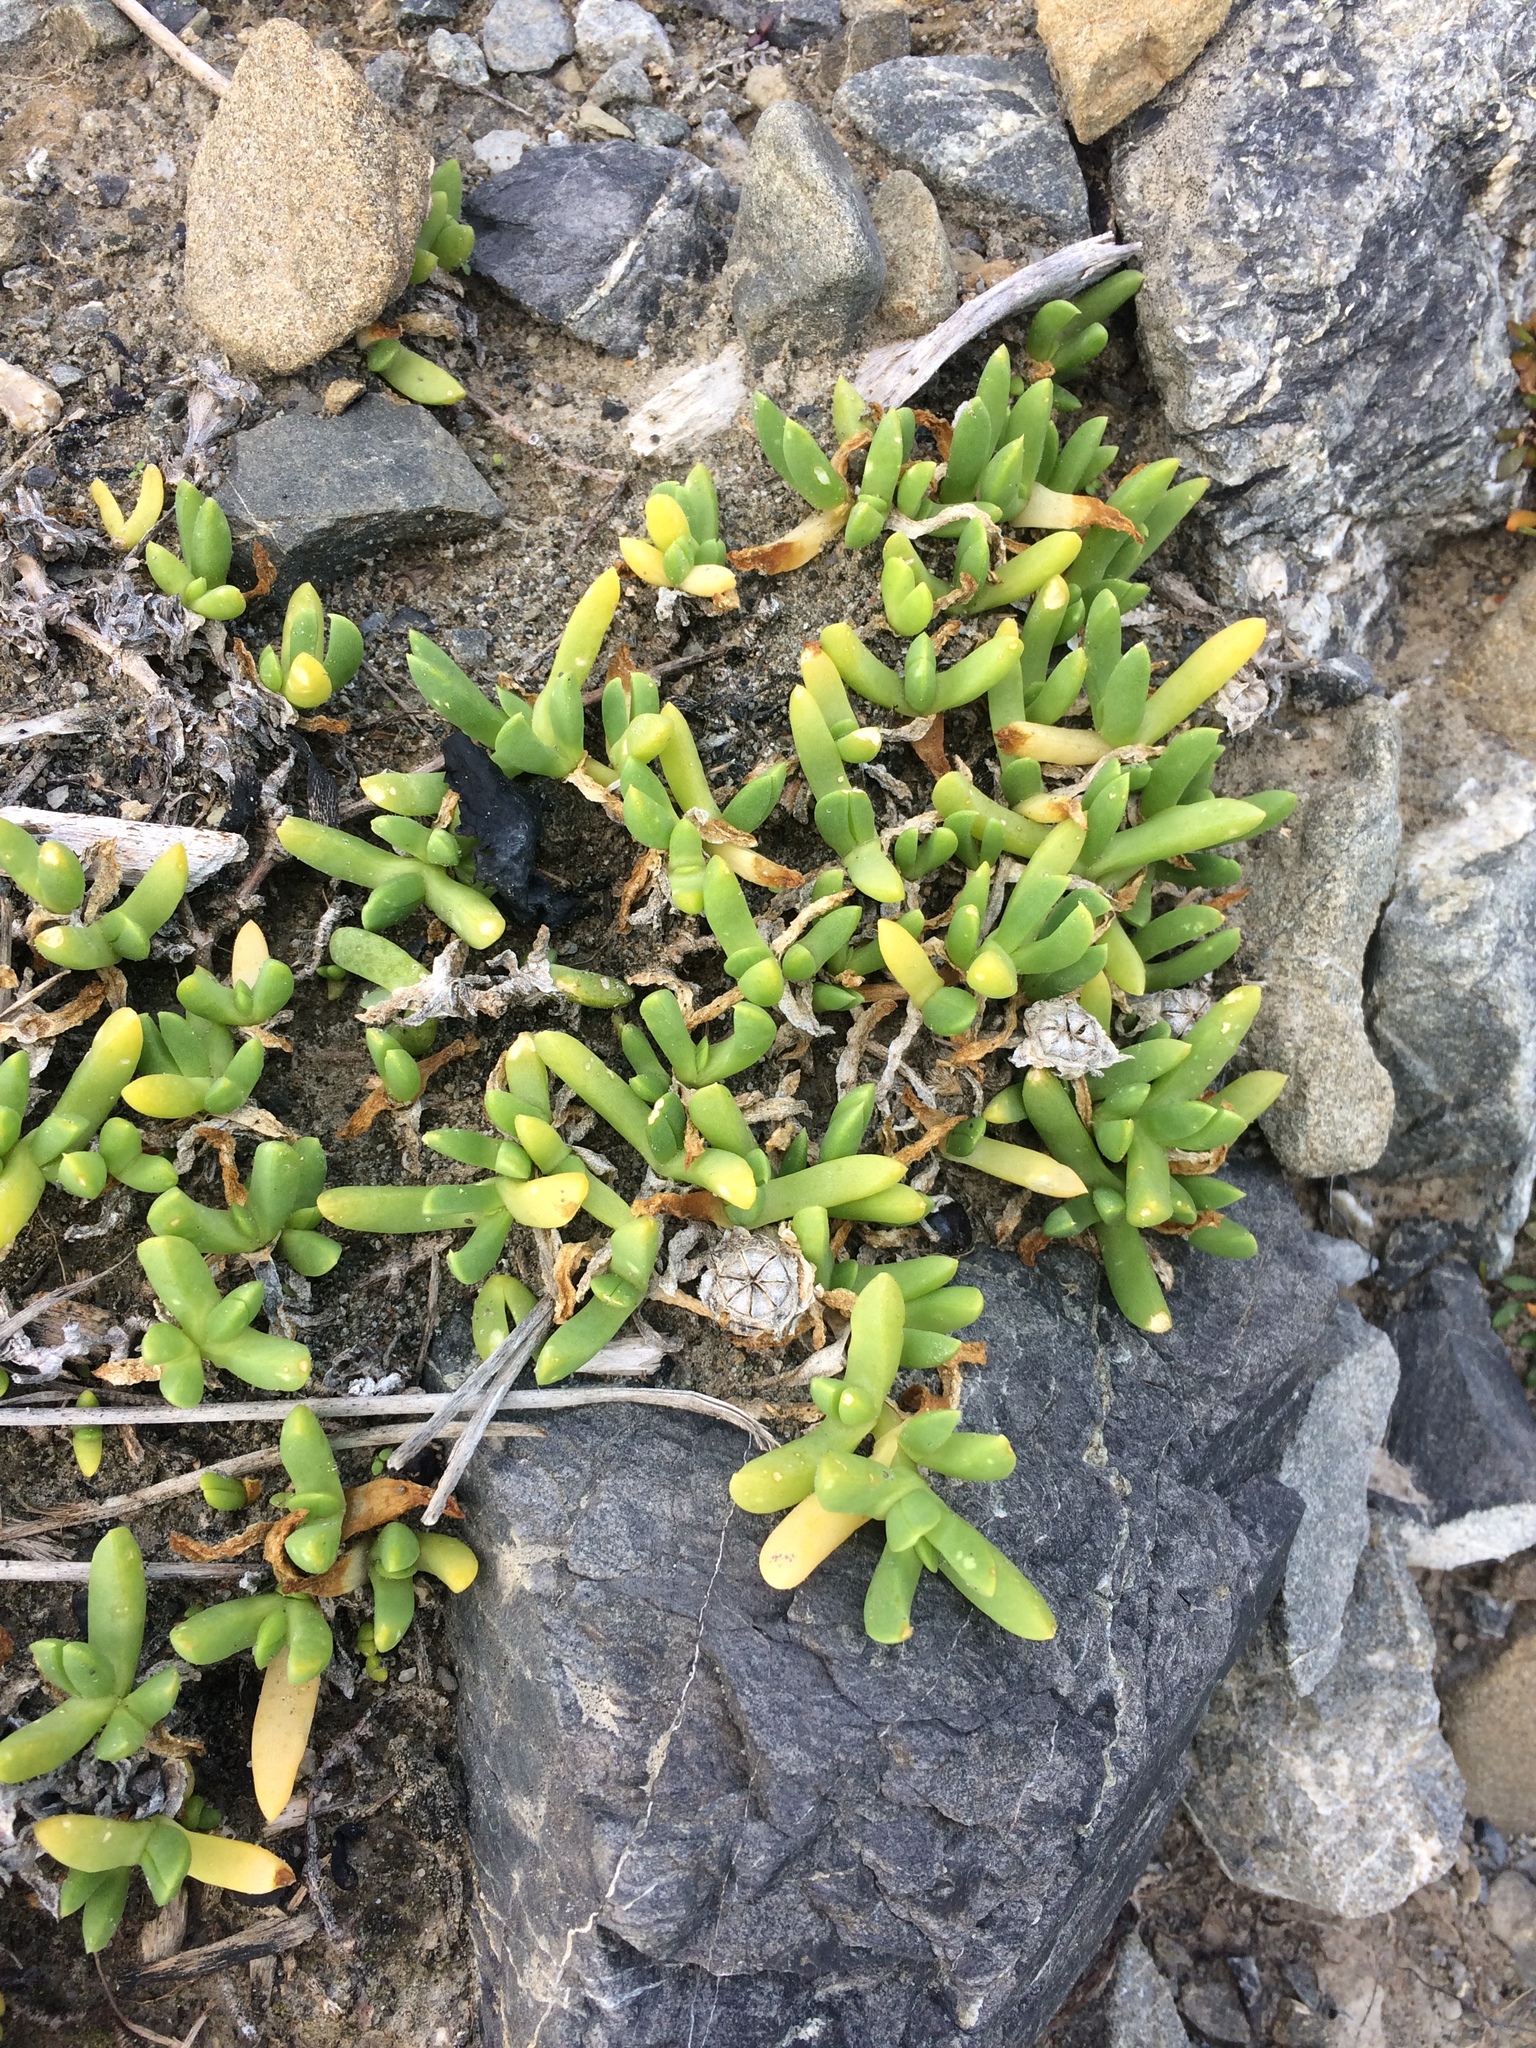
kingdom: Plantae
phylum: Tracheophyta
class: Magnoliopsida
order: Caryophyllales
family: Aizoaceae
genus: Disphyma
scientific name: Disphyma australe
